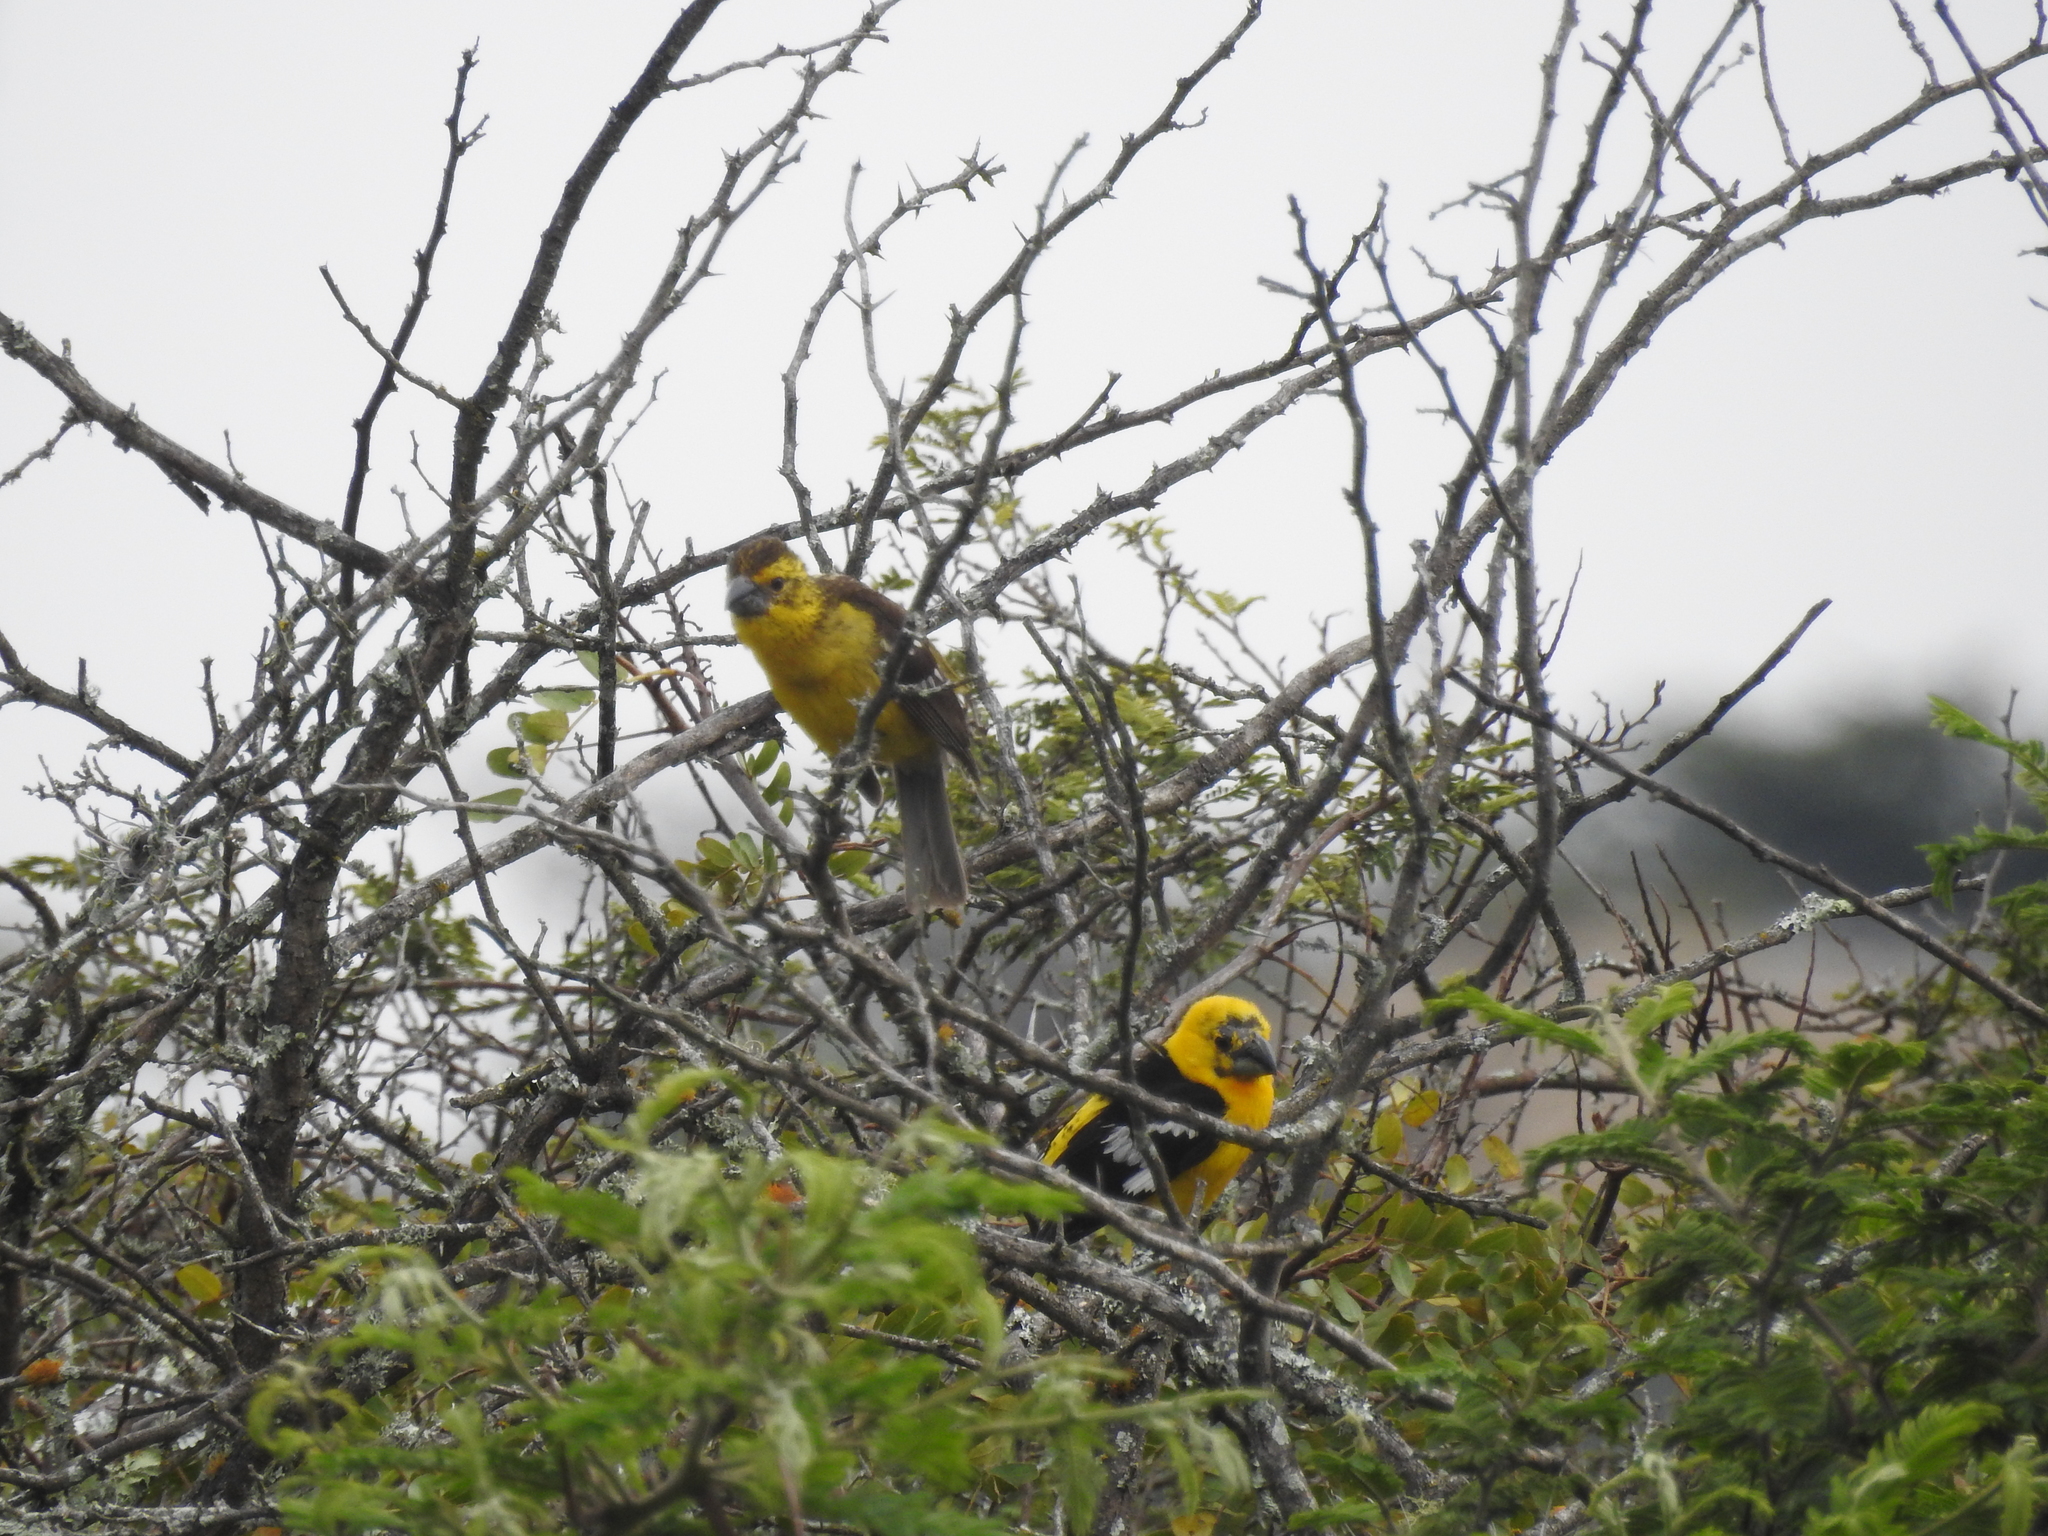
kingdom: Animalia
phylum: Chordata
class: Aves
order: Passeriformes
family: Cardinalidae
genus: Pheucticus
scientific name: Pheucticus chrysogaster
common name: Golden grosbeak
